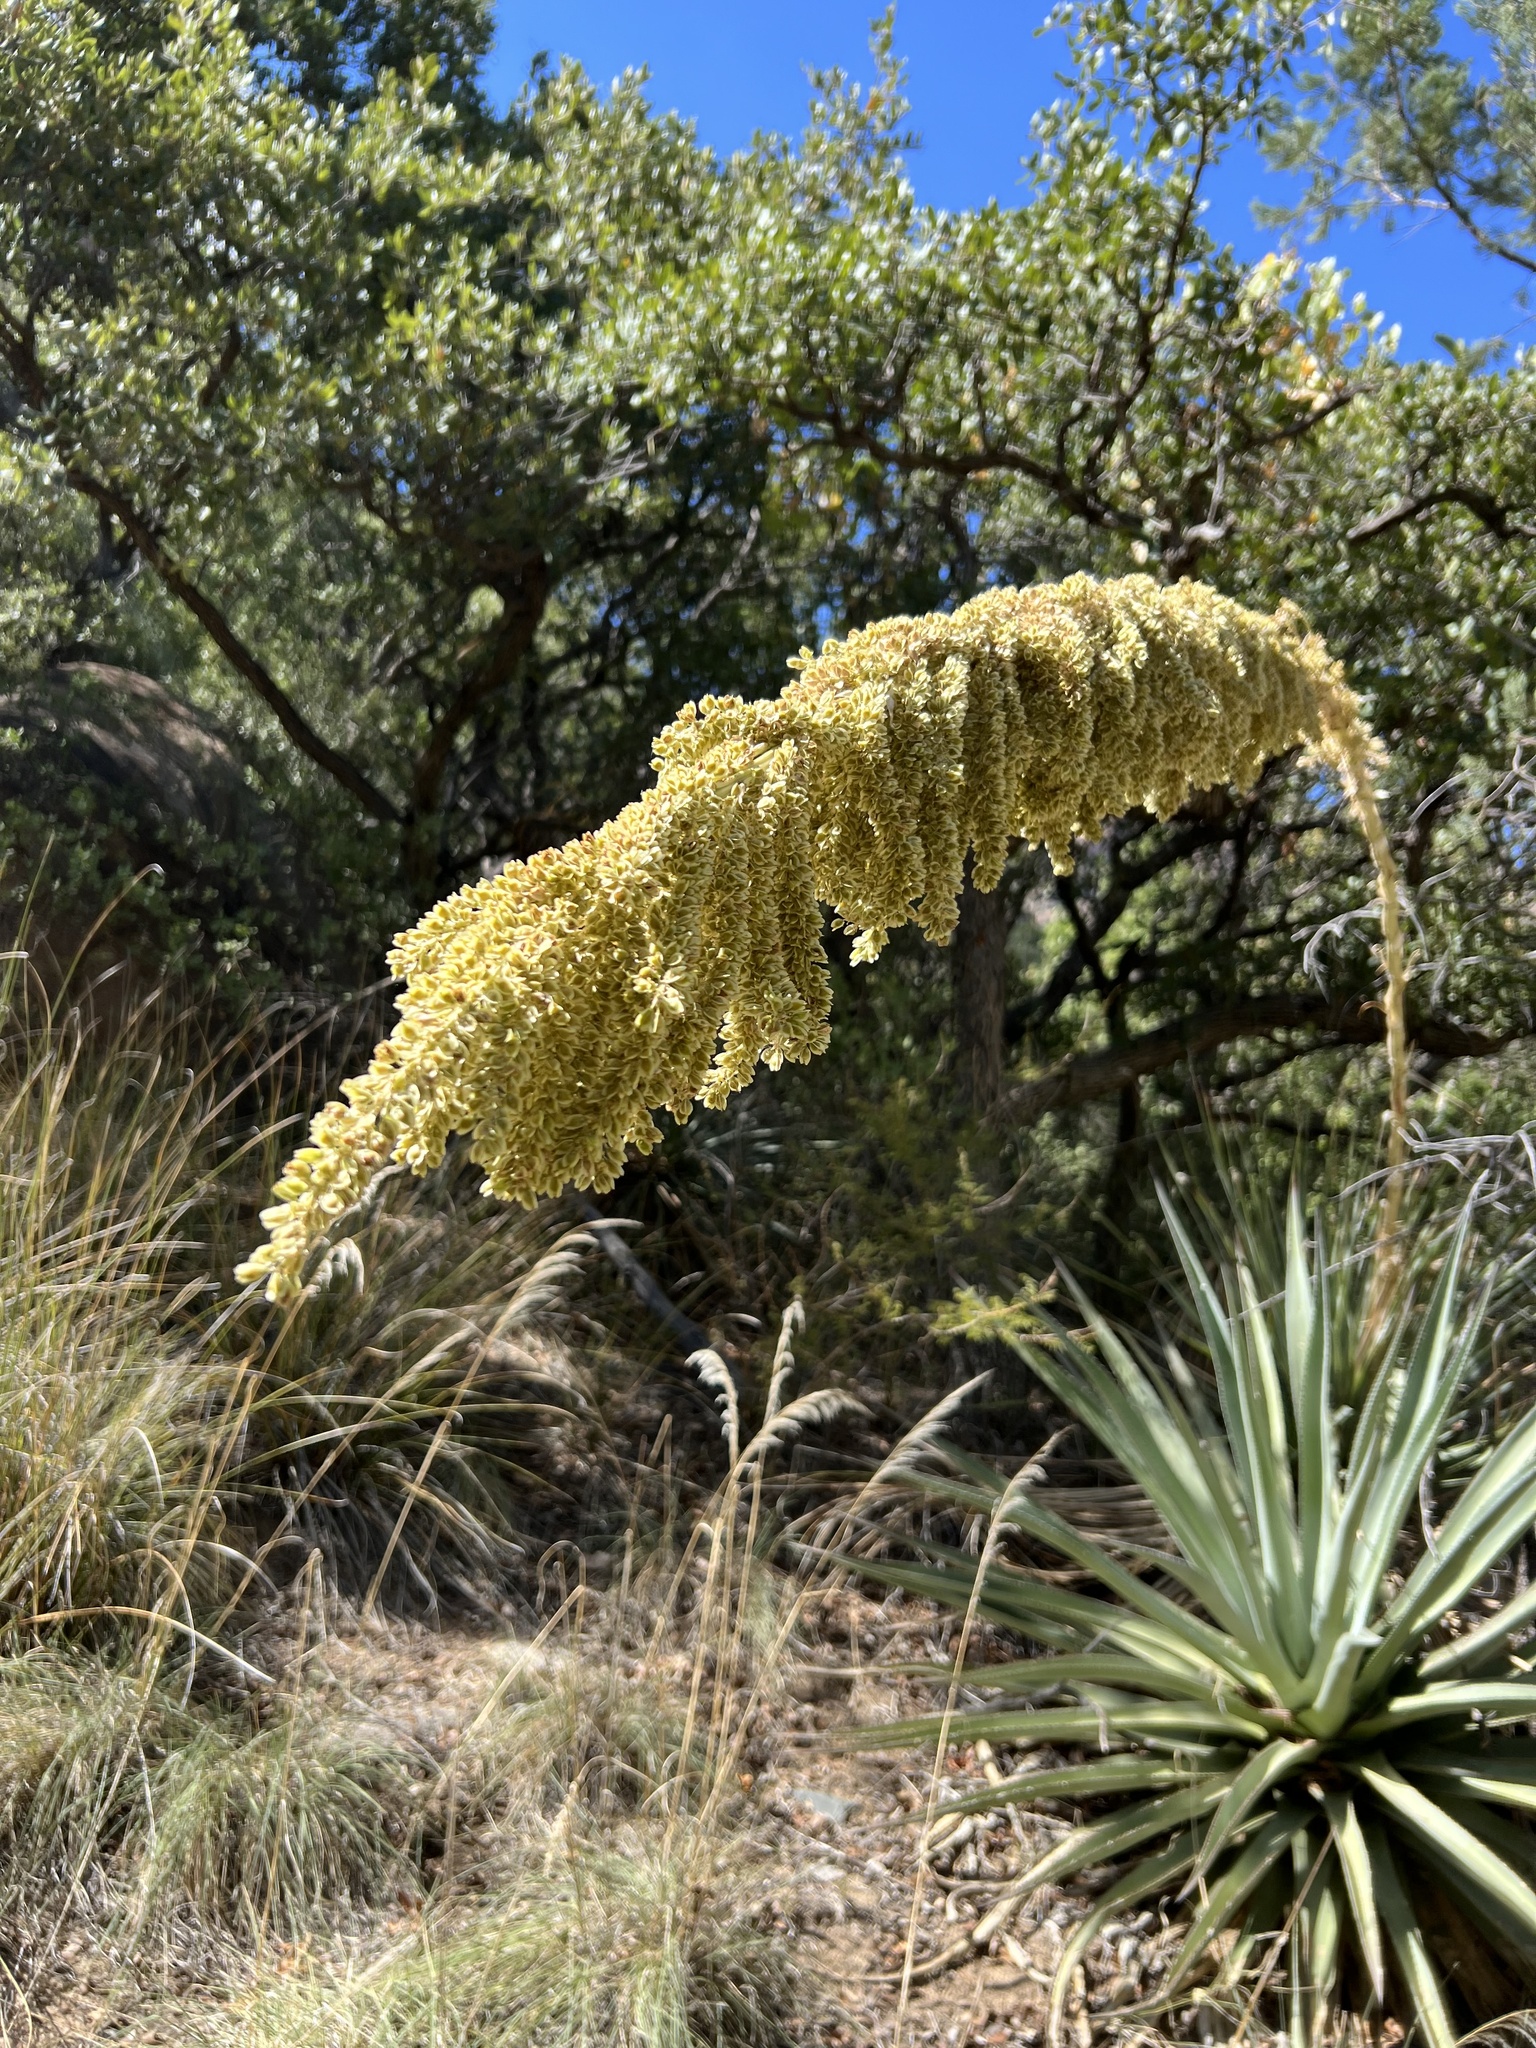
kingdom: Plantae
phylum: Tracheophyta
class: Liliopsida
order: Asparagales
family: Asparagaceae
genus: Dasylirion
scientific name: Dasylirion wheeleri
